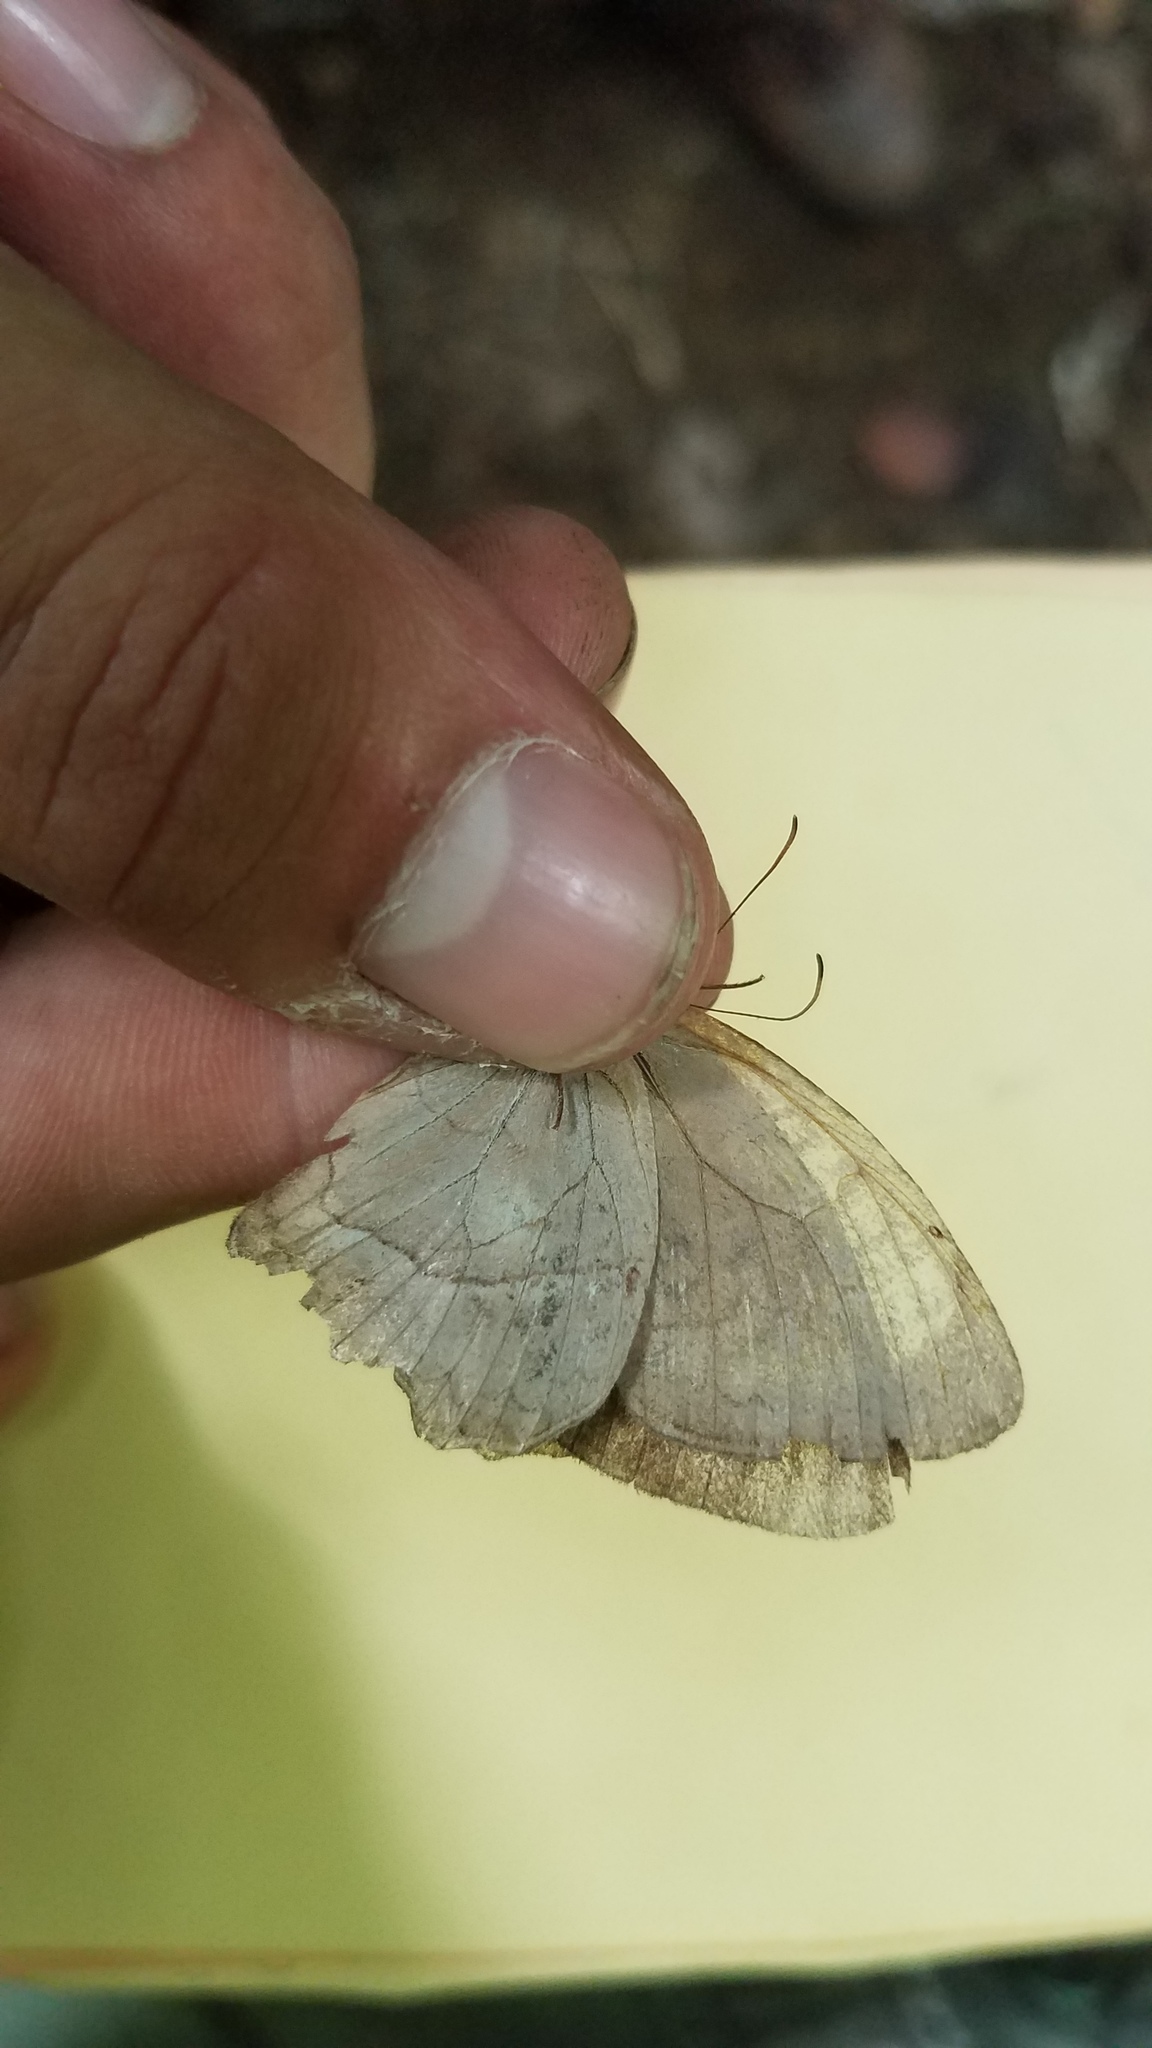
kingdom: Animalia
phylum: Arthropoda
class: Insecta
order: Lepidoptera
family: Nymphalidae
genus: Taygetina
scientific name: Taygetina kerea
